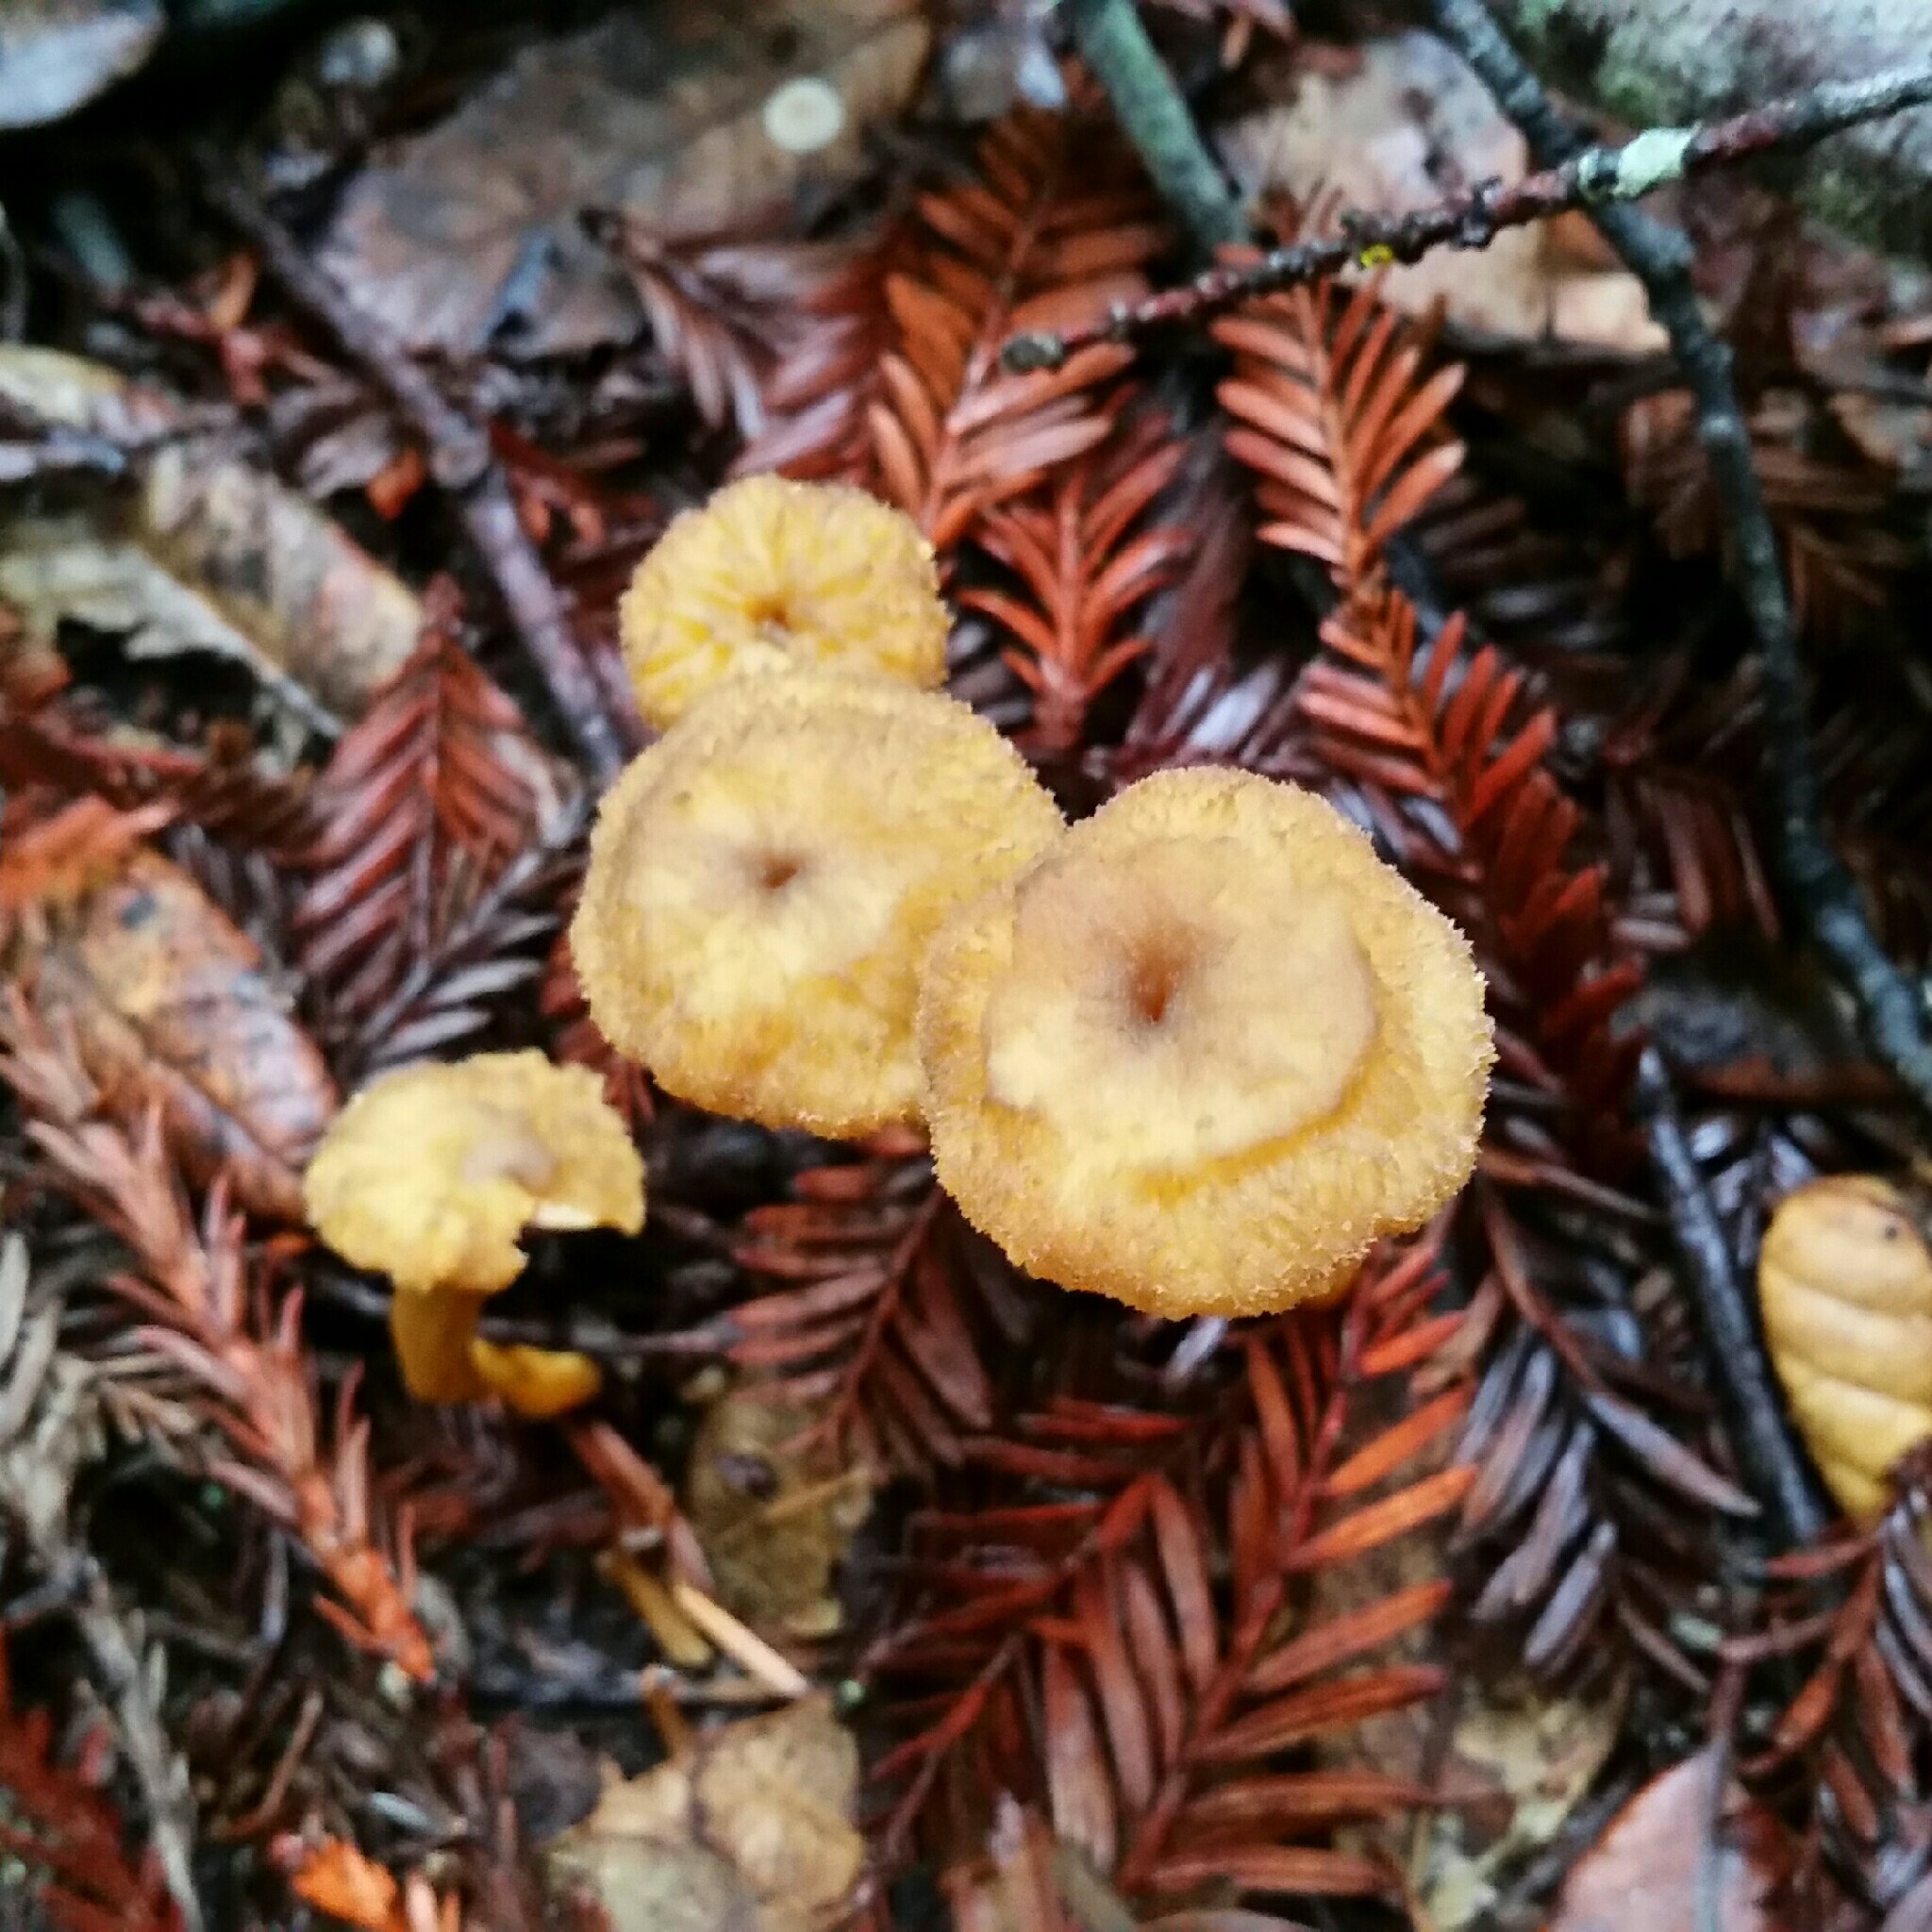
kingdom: Fungi
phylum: Basidiomycota
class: Agaricomycetes
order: Cantharellales
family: Hydnaceae
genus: Craterellus
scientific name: Craterellus tubaeformis
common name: Yellowfoot
